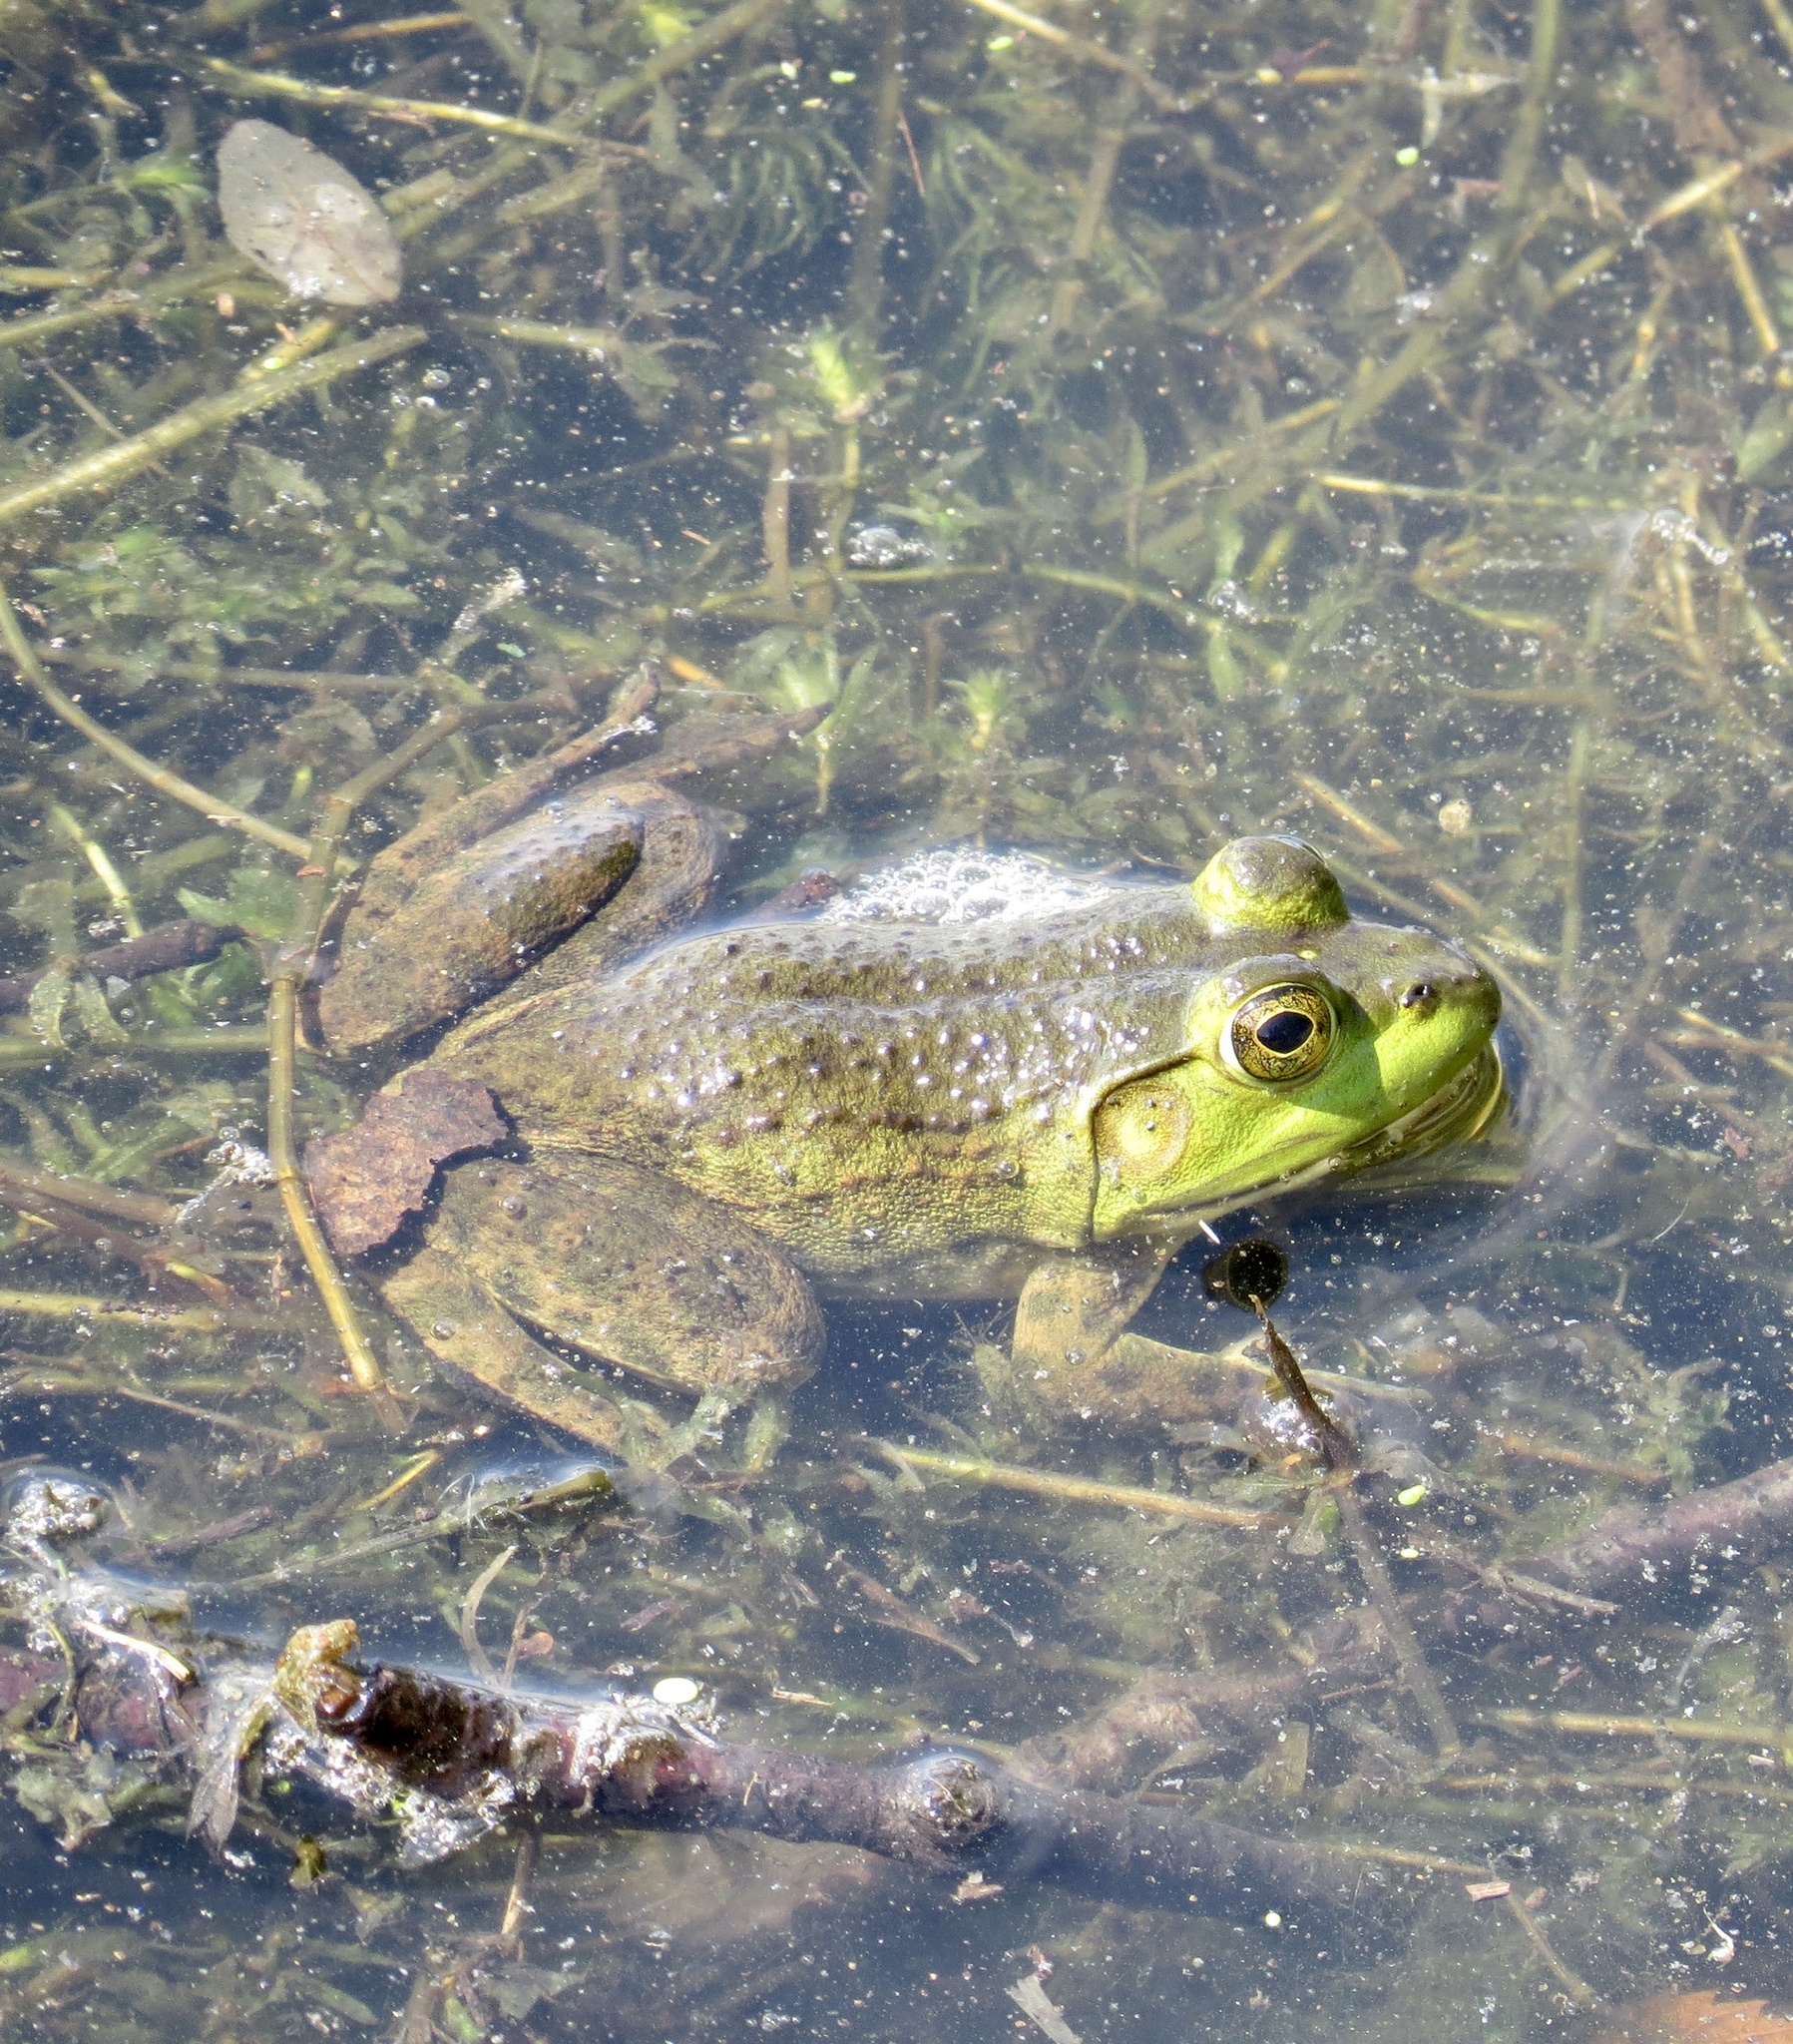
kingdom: Animalia
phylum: Chordata
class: Amphibia
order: Anura
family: Ranidae
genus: Lithobates
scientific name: Lithobates catesbeianus
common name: American bullfrog
